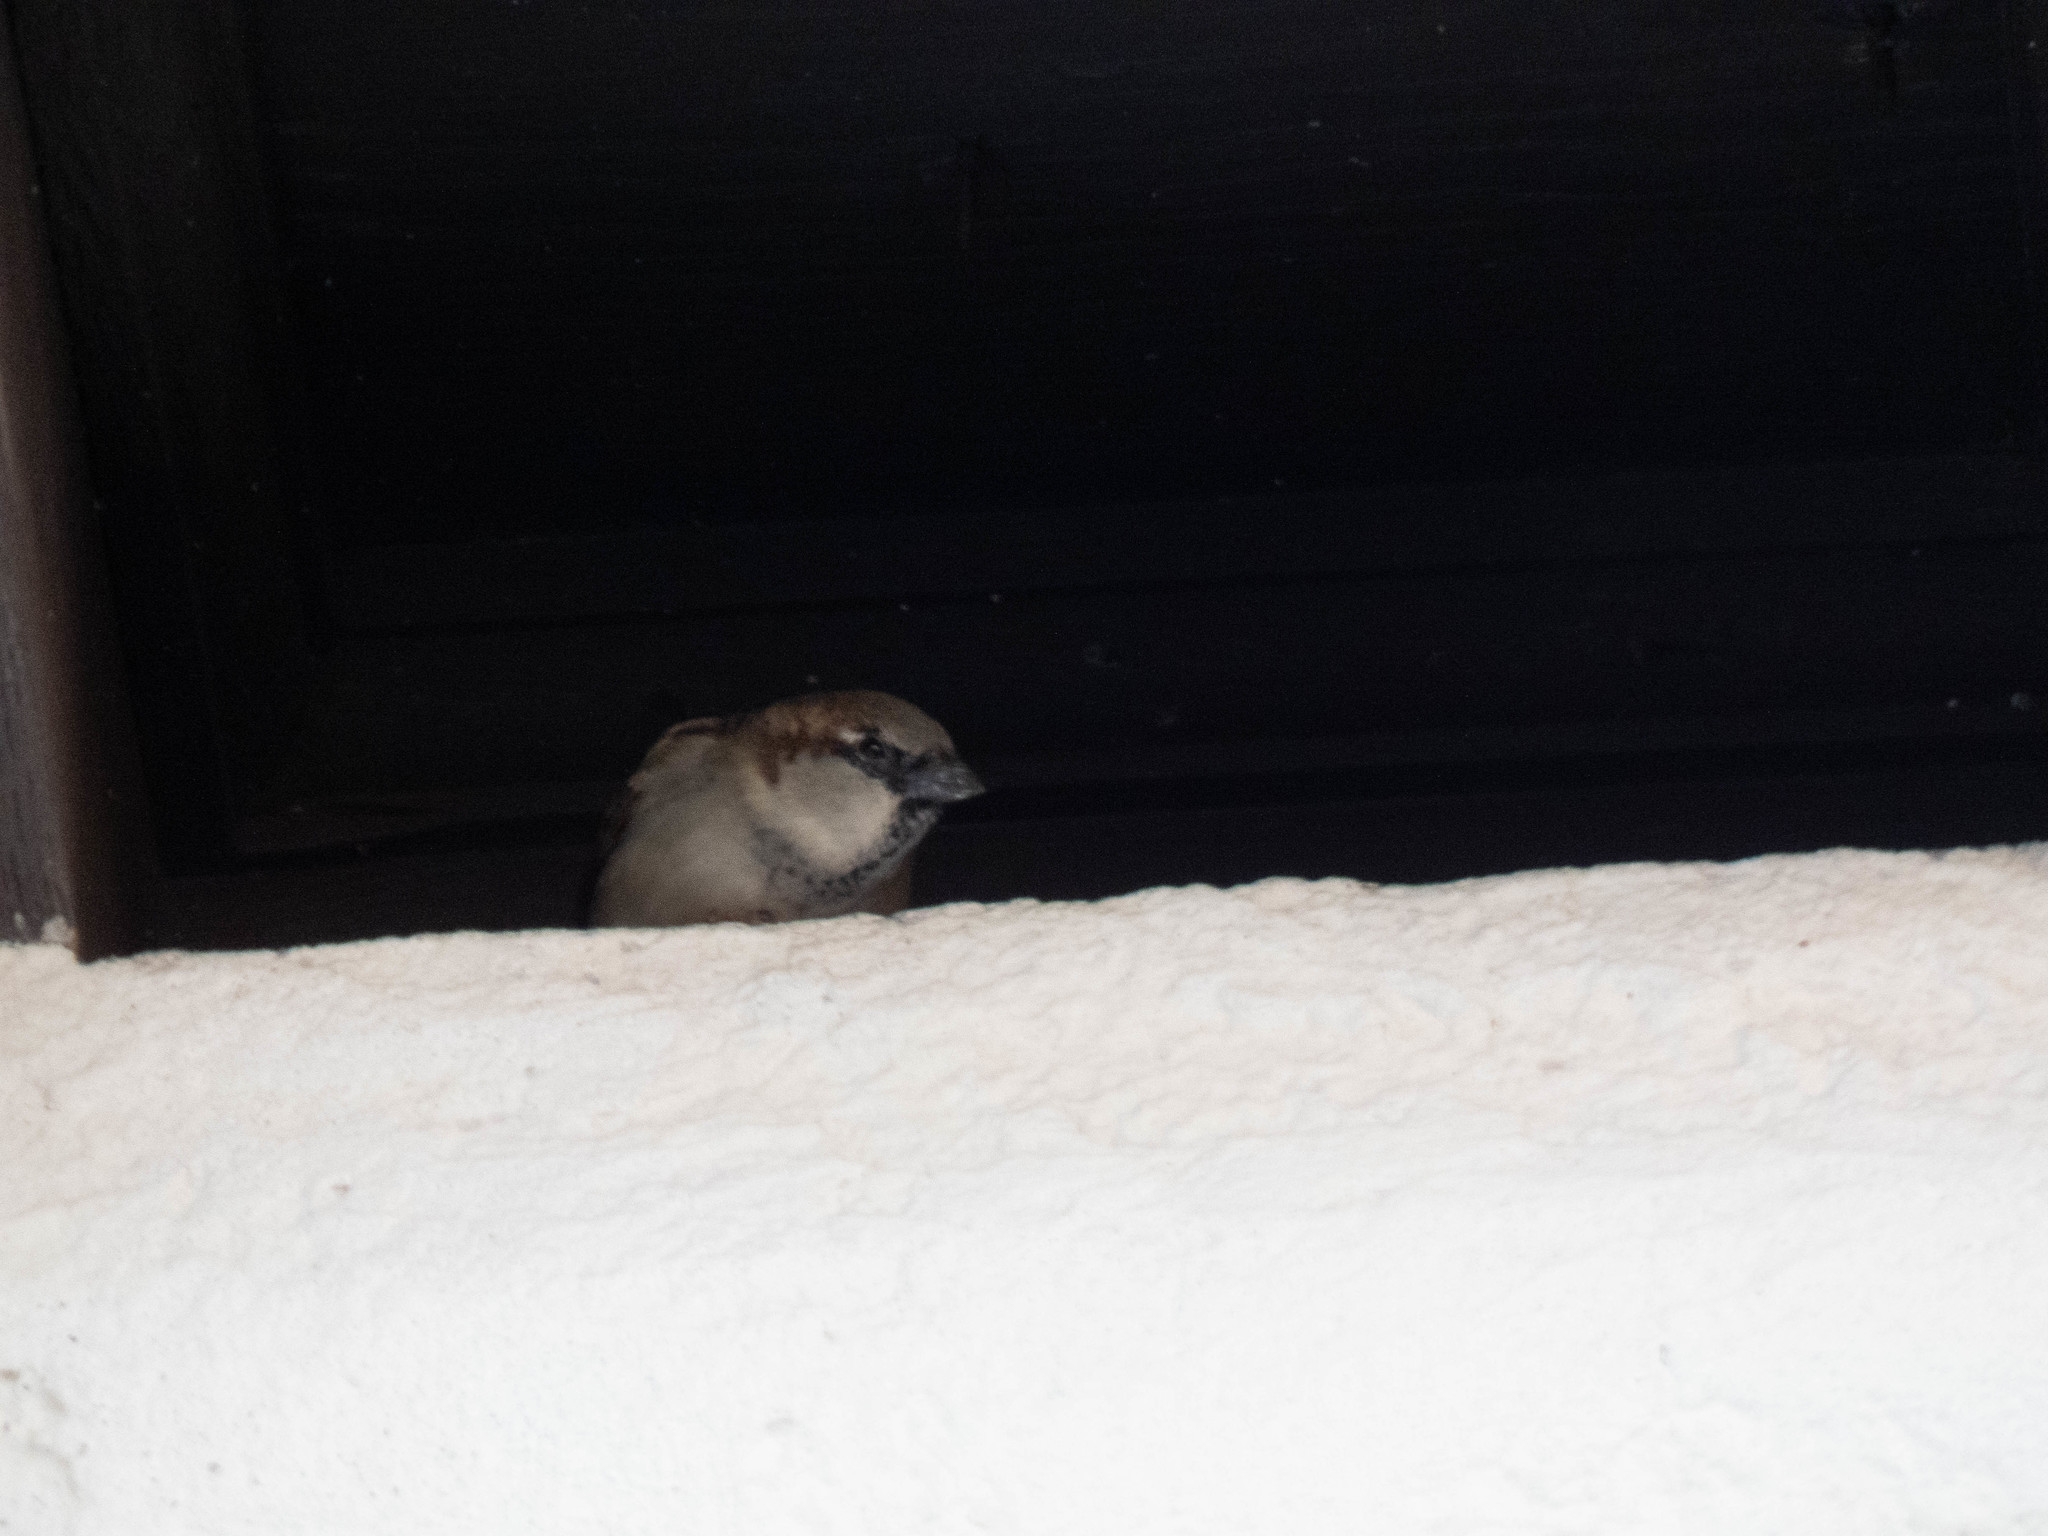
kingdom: Animalia
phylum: Chordata
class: Aves
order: Passeriformes
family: Passeridae
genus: Passer
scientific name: Passer domesticus
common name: House sparrow
